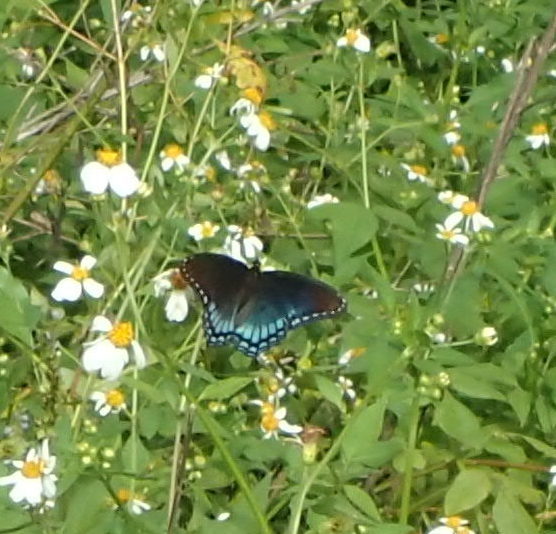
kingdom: Animalia
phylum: Arthropoda
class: Insecta
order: Lepidoptera
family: Nymphalidae
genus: Limenitis
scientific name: Limenitis arthemis
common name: Red-spotted admiral
